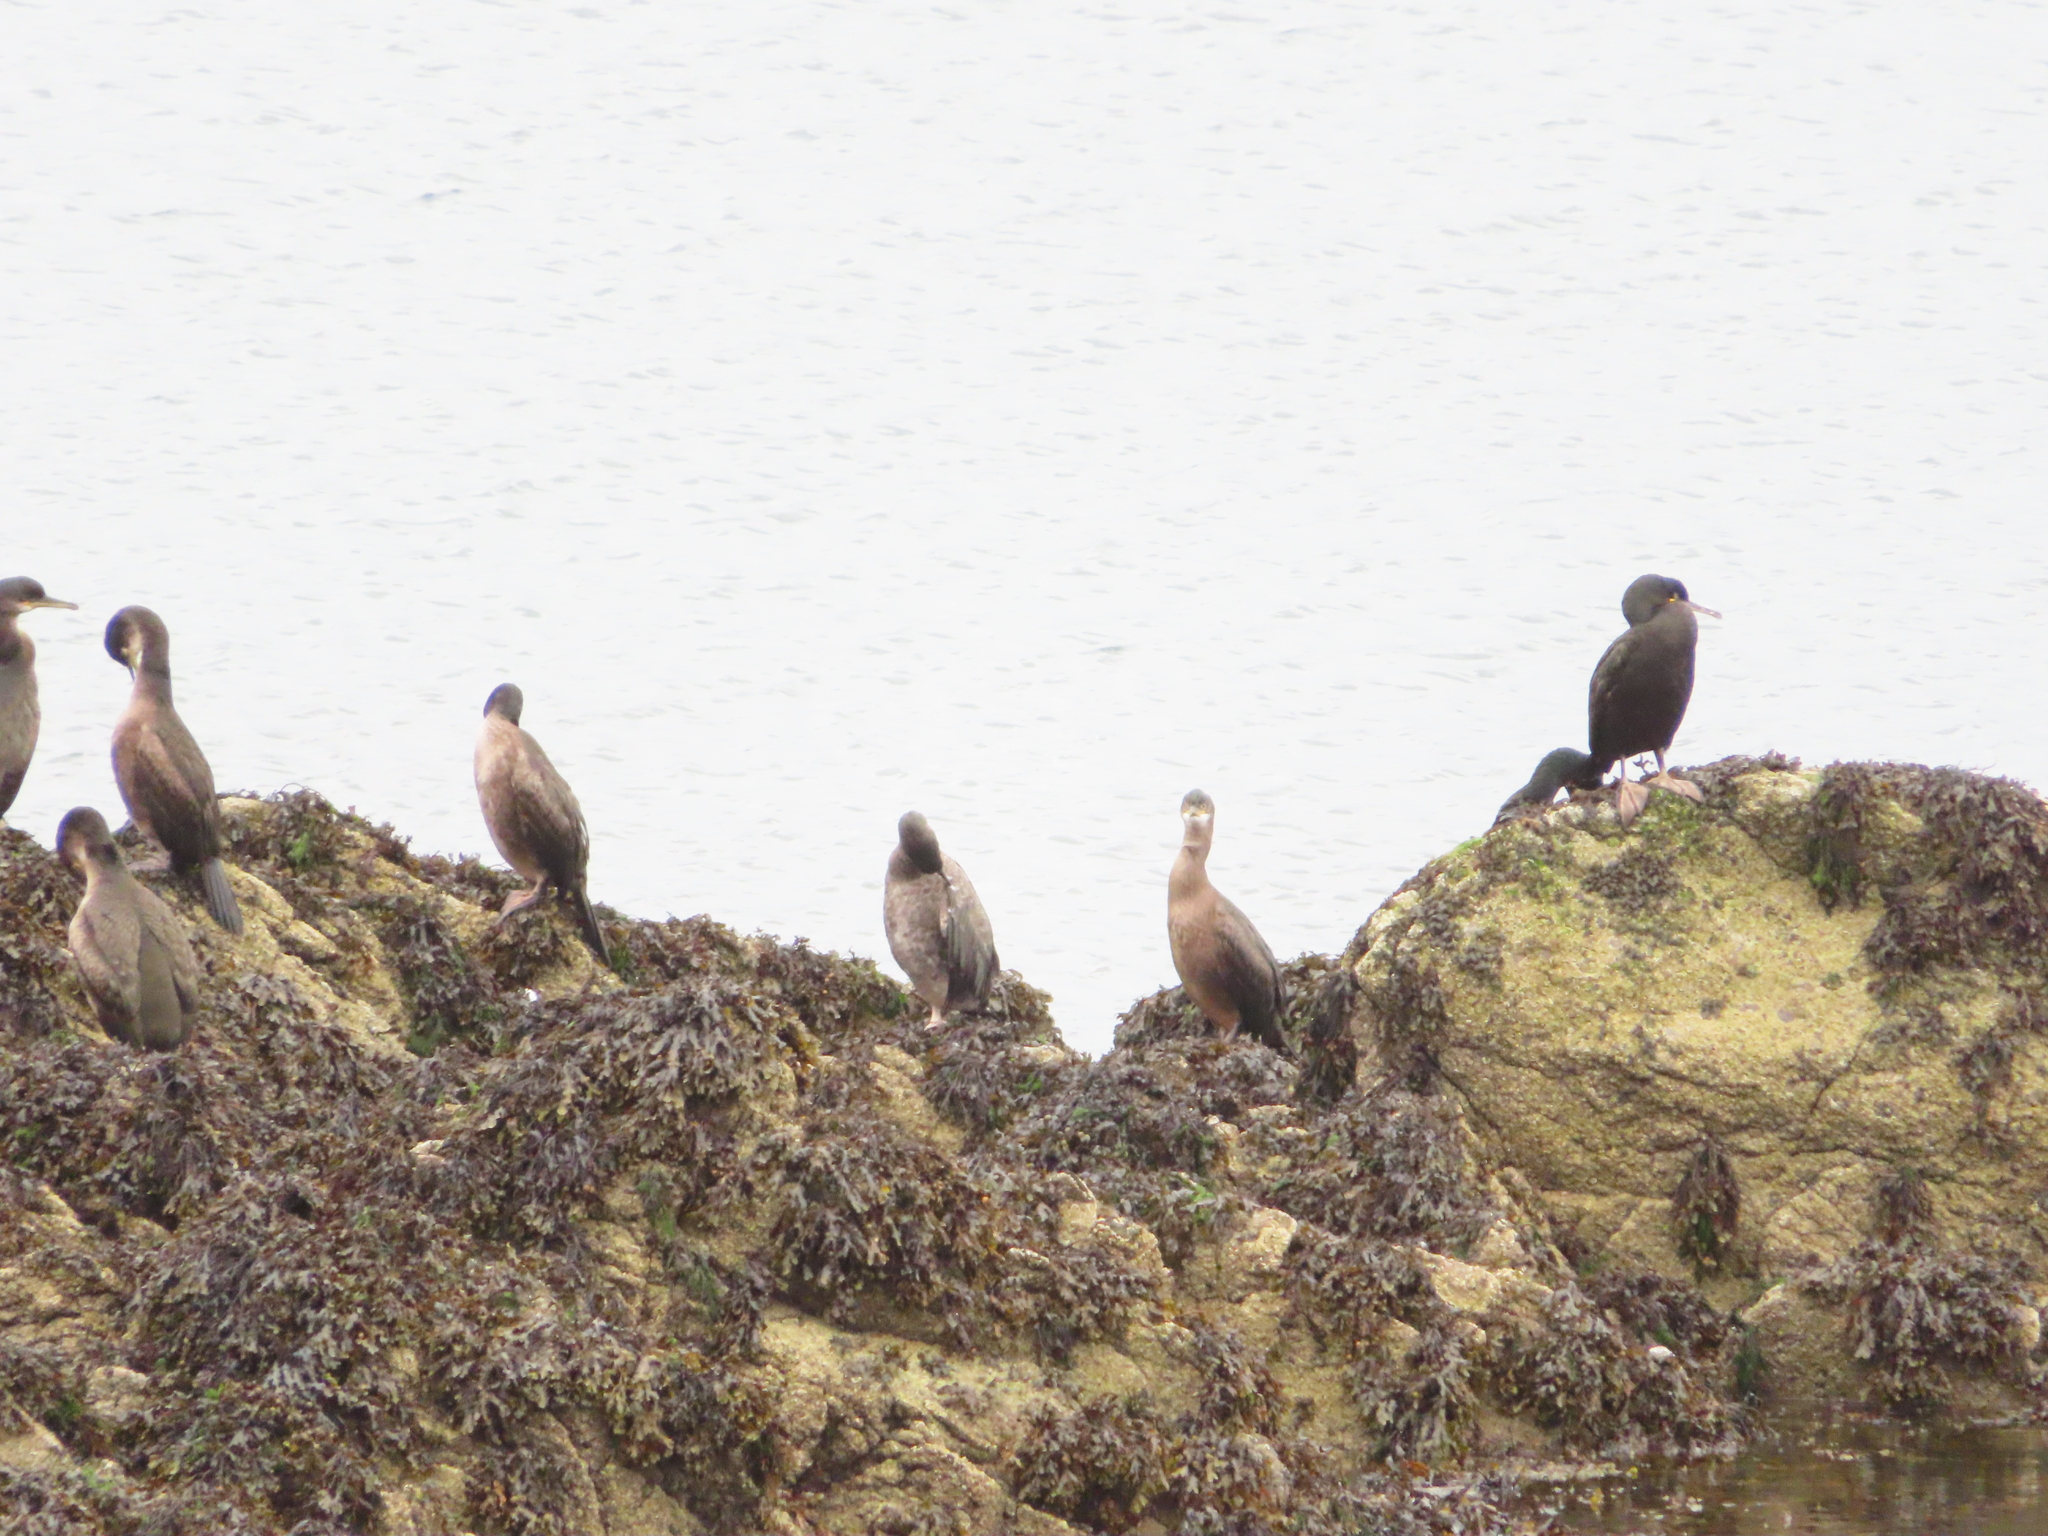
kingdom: Animalia
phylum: Chordata
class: Aves
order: Suliformes
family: Phalacrocoracidae
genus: Phalacrocorax
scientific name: Phalacrocorax aristotelis
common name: European shag
